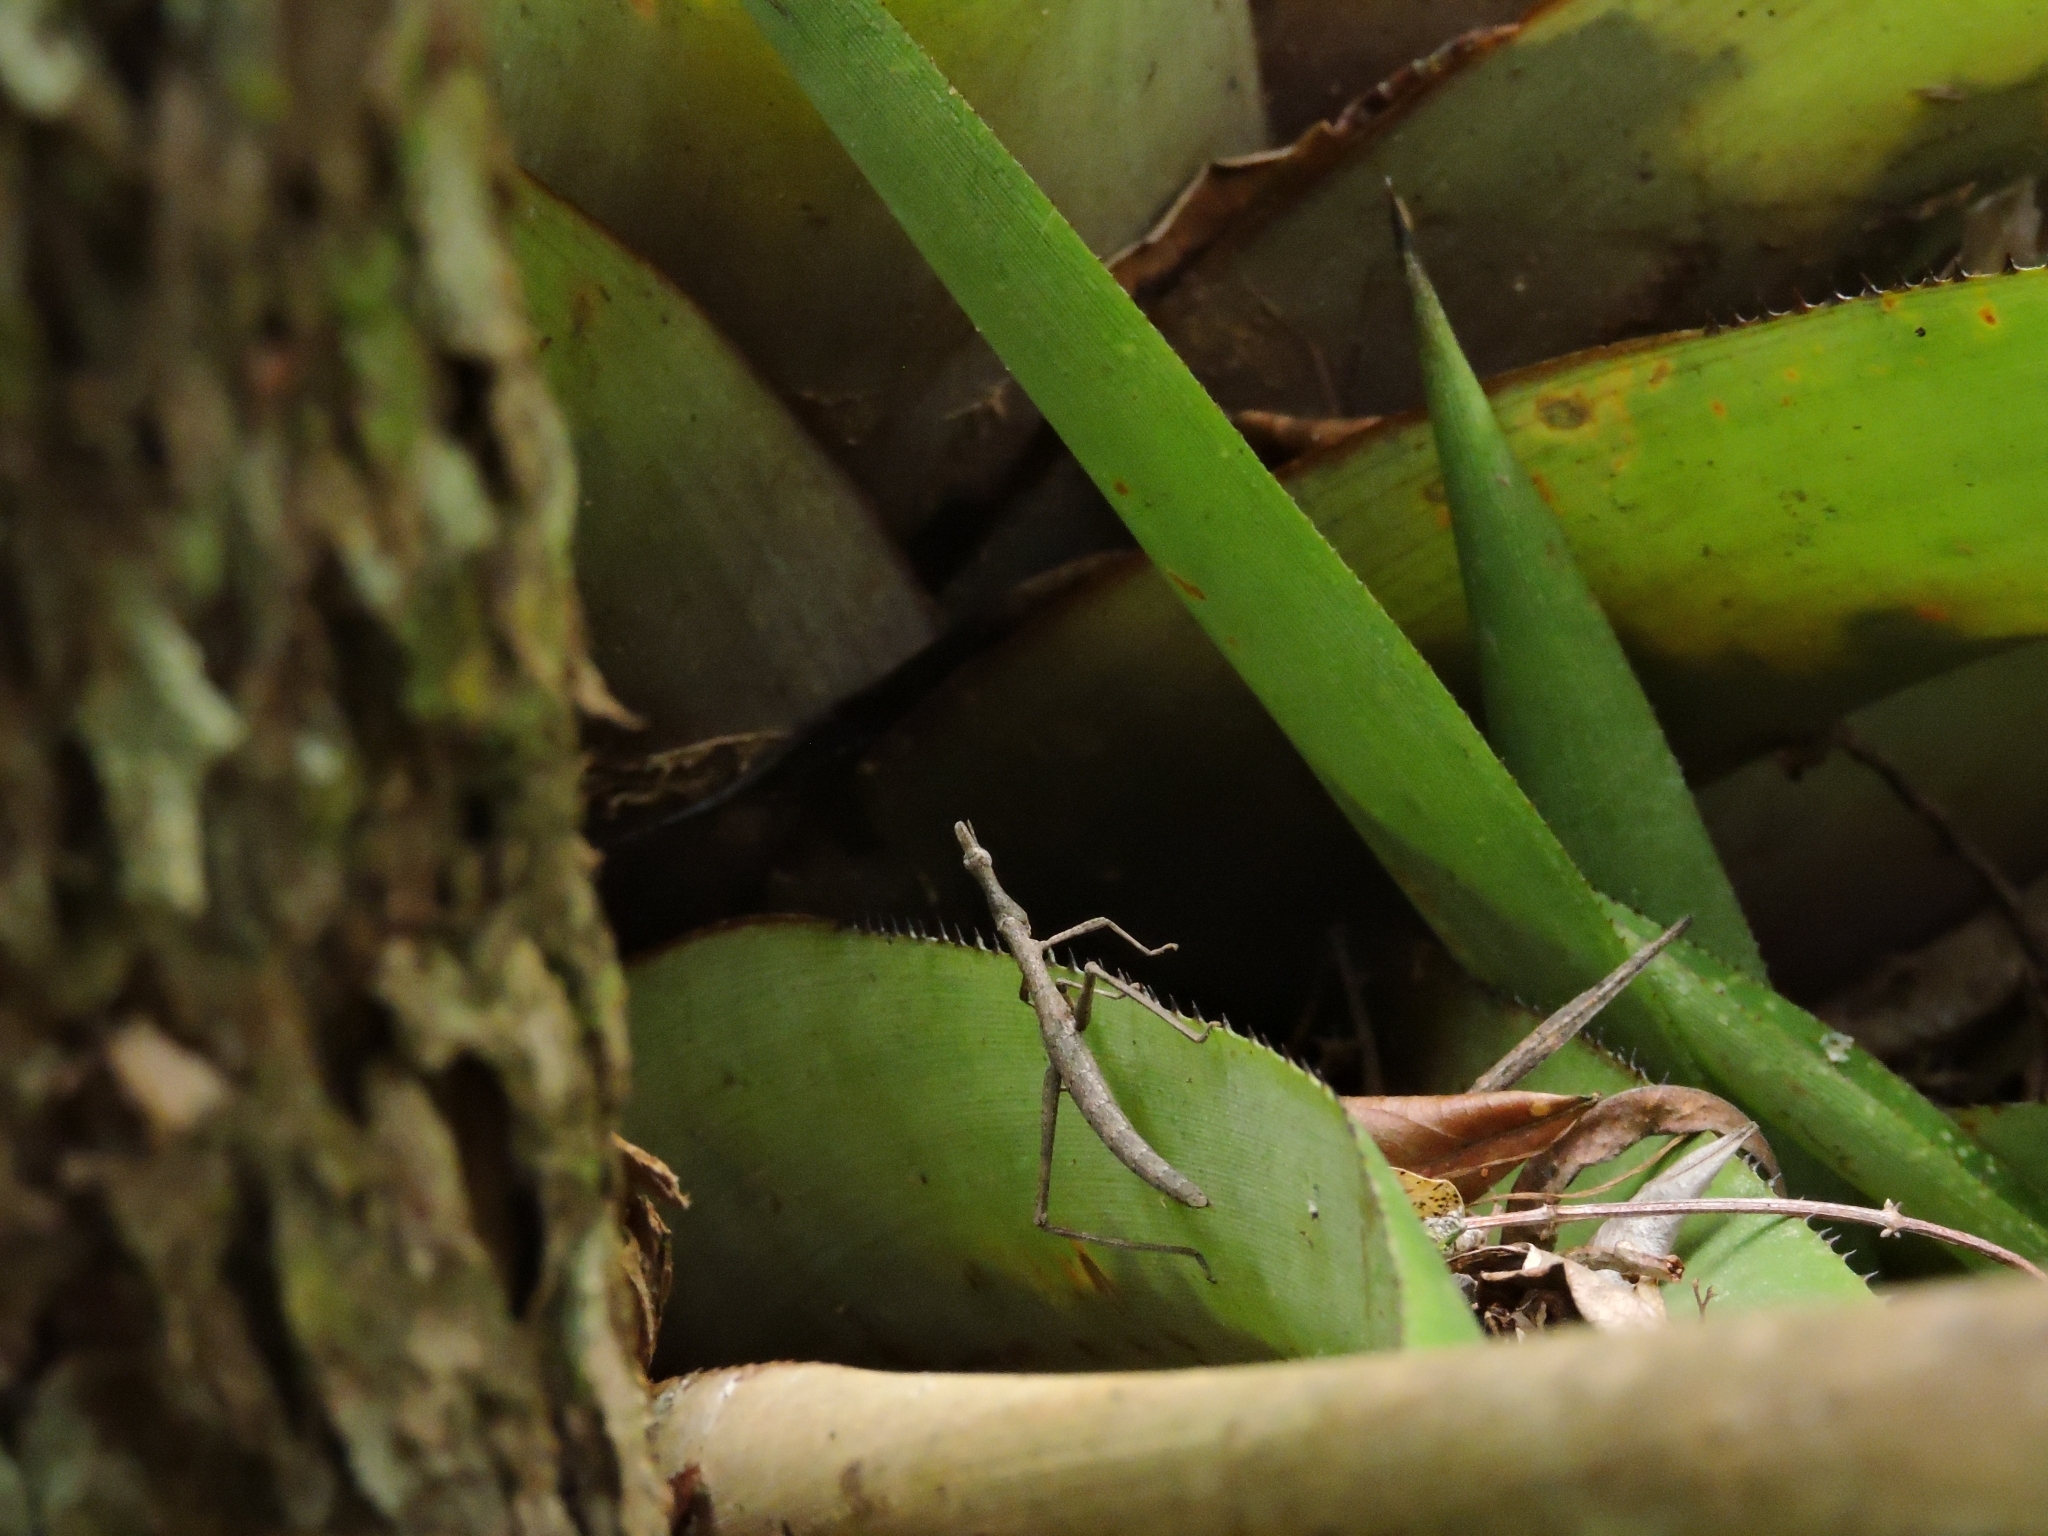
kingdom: Animalia
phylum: Arthropoda
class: Insecta
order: Orthoptera
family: Proscopiidae
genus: Stiphra
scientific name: Stiphra tuberculata
